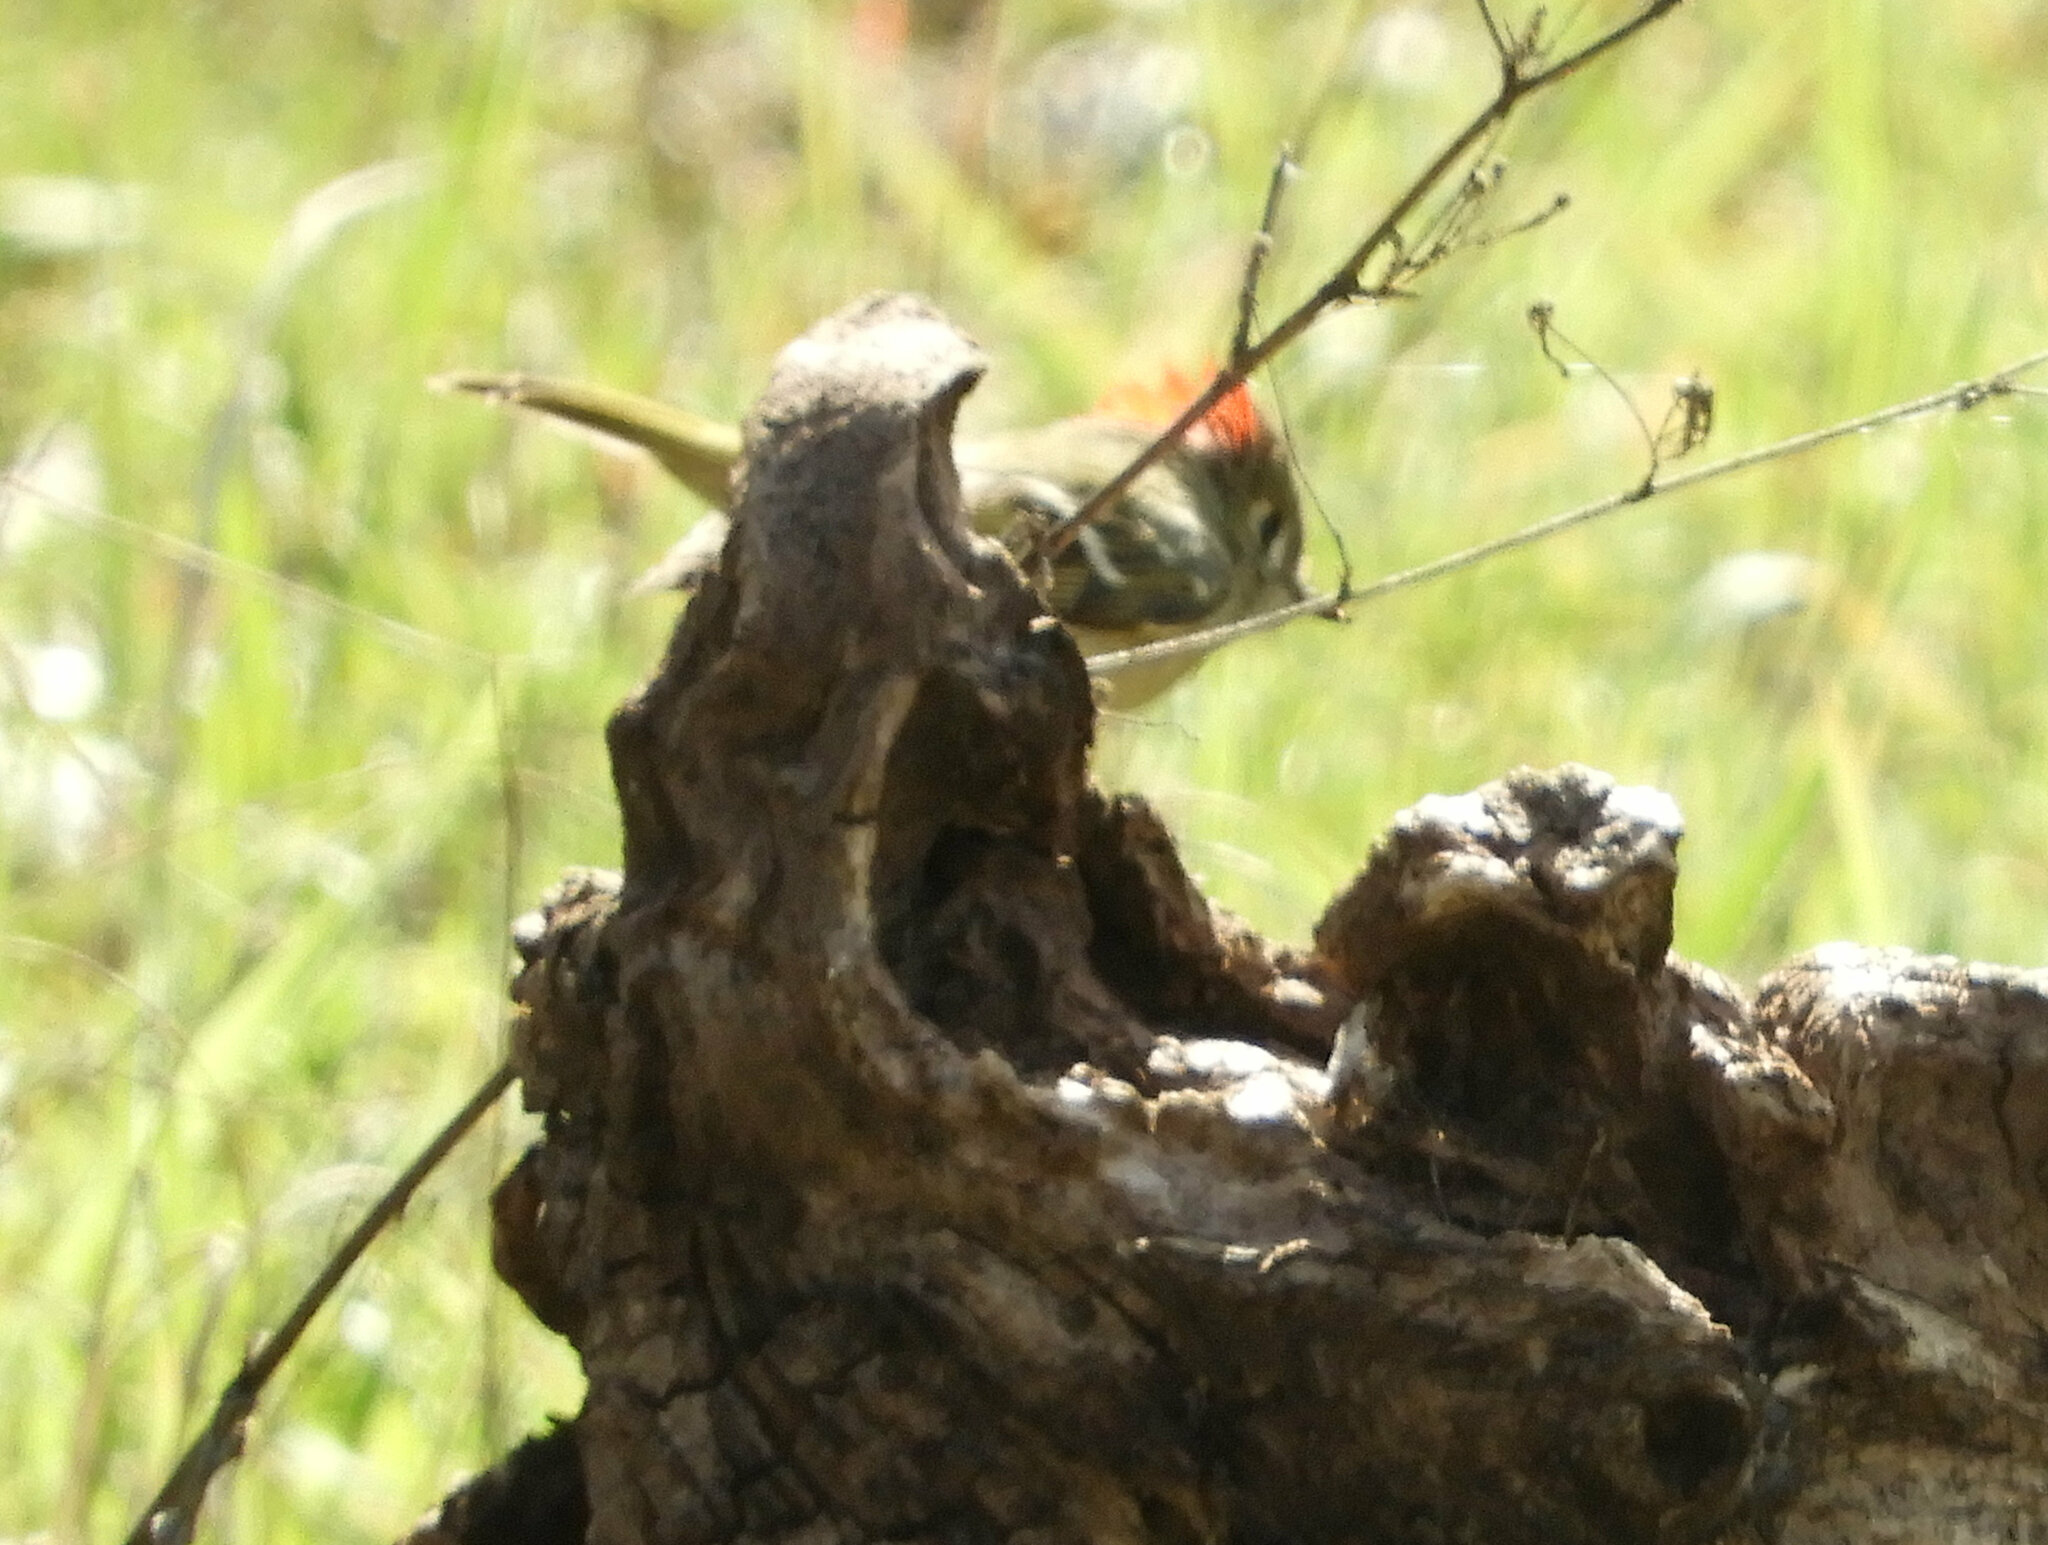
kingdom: Animalia
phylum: Chordata
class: Aves
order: Passeriformes
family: Regulidae
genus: Regulus
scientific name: Regulus calendula
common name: Ruby-crowned kinglet
